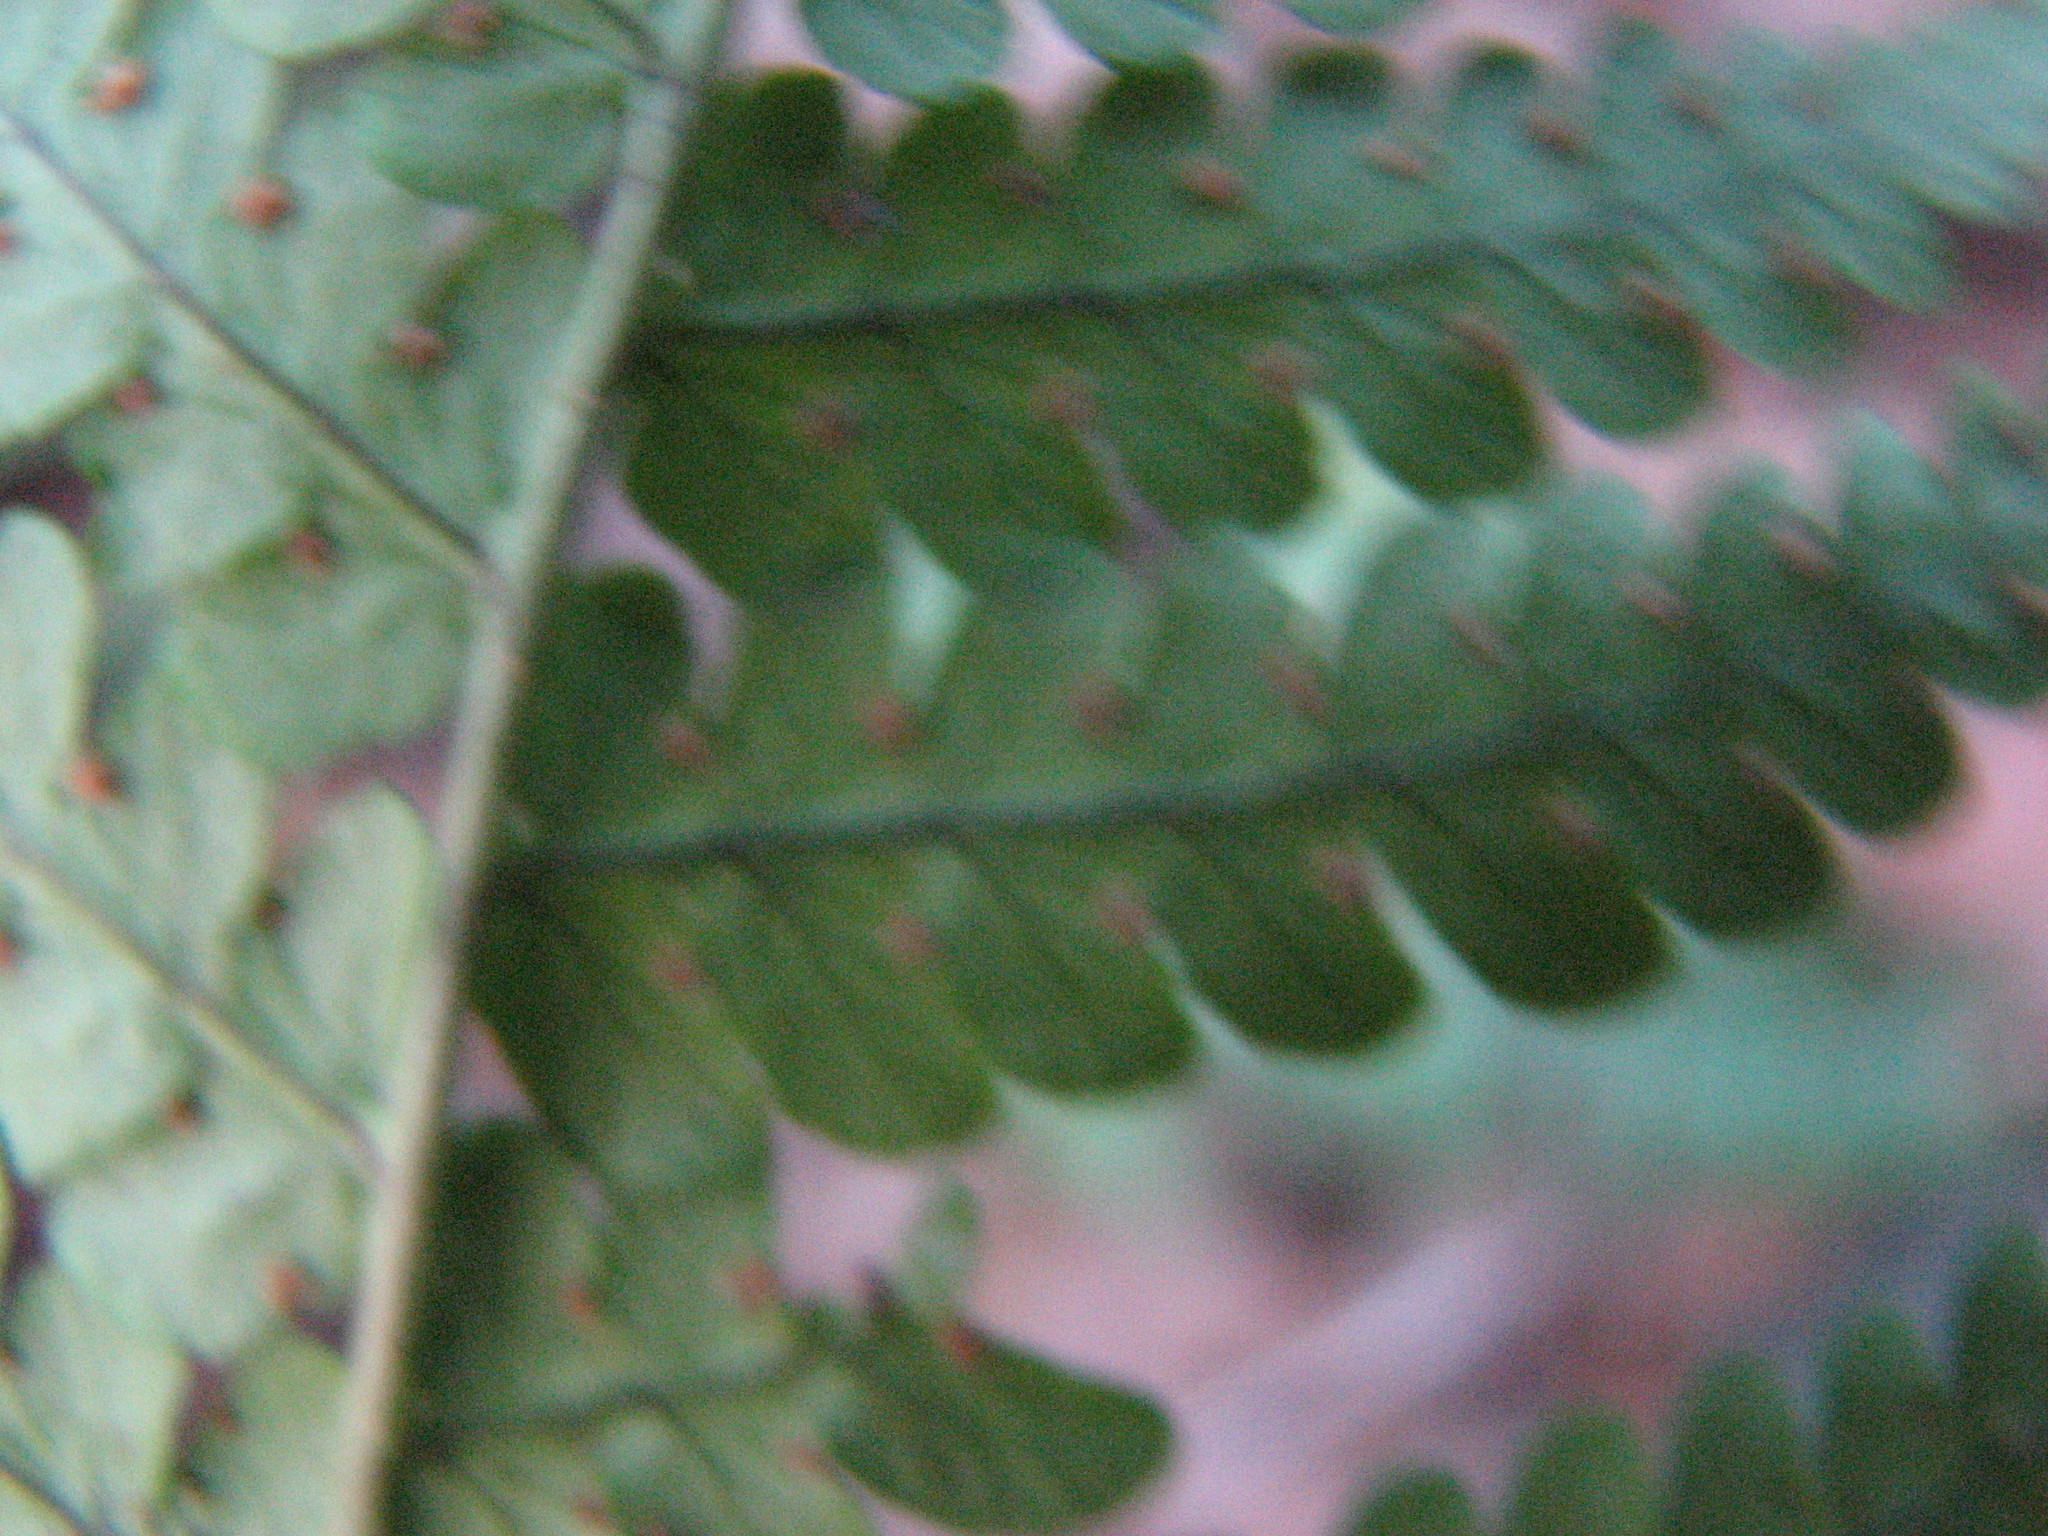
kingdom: Plantae
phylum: Tracheophyta
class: Polypodiopsida
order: Polypodiales
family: Dryopteridaceae
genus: Dryopteris
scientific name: Dryopteris marginalis
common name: Marginal wood fern
